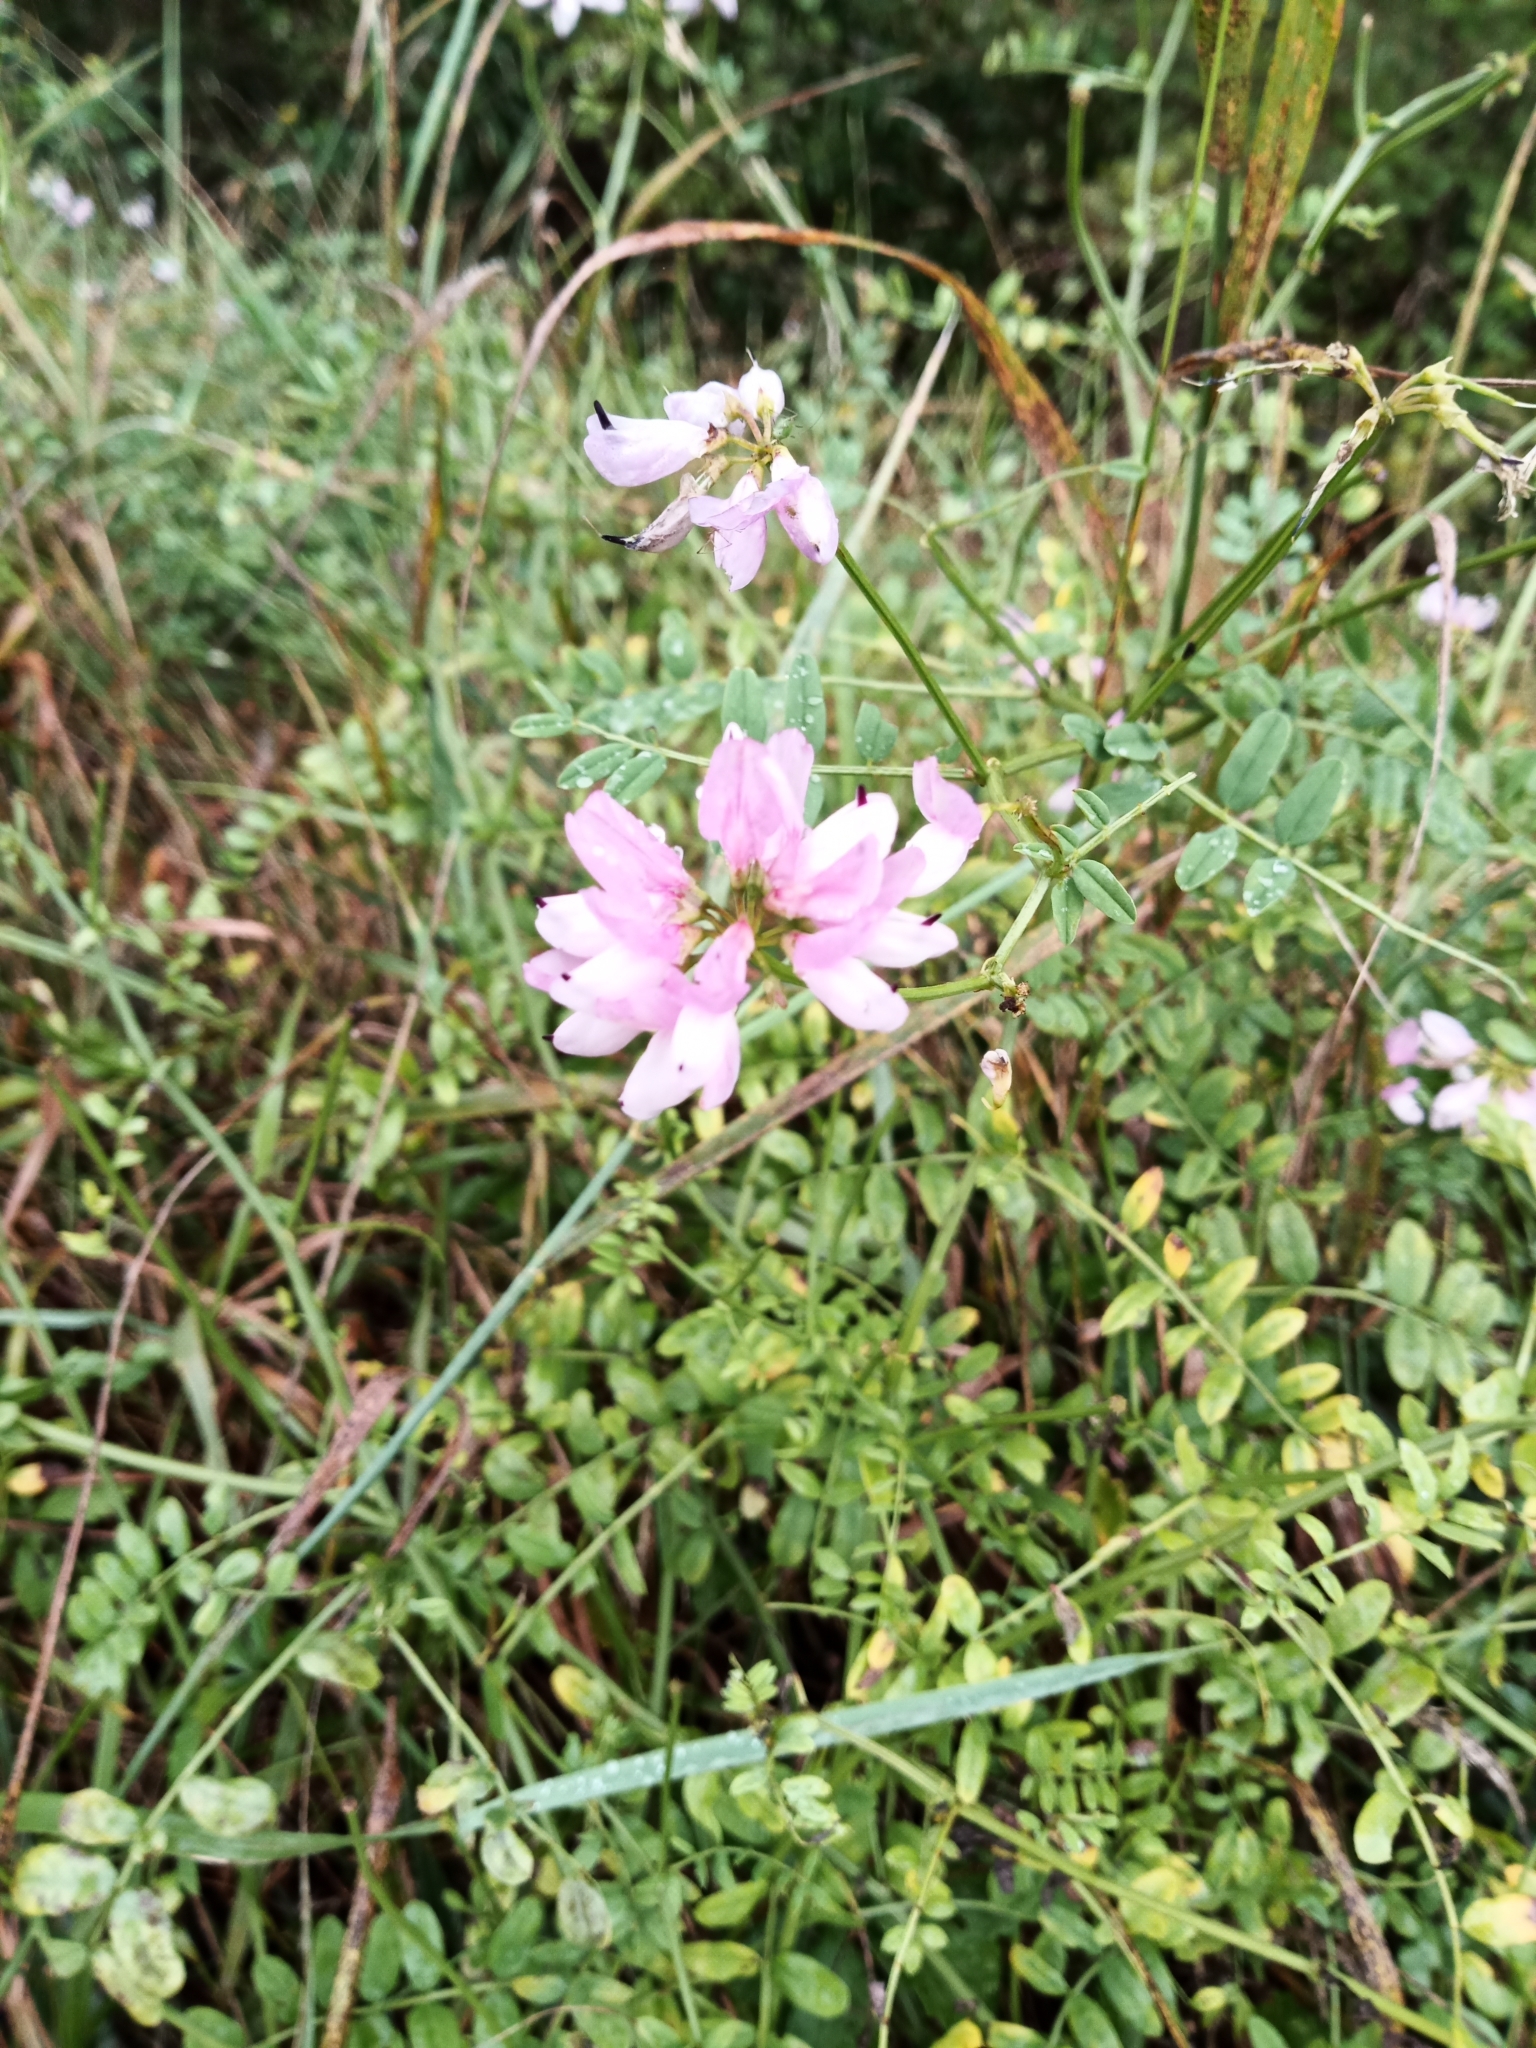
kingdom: Plantae
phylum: Tracheophyta
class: Magnoliopsida
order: Fabales
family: Fabaceae
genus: Coronilla
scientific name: Coronilla varia
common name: Crownvetch
